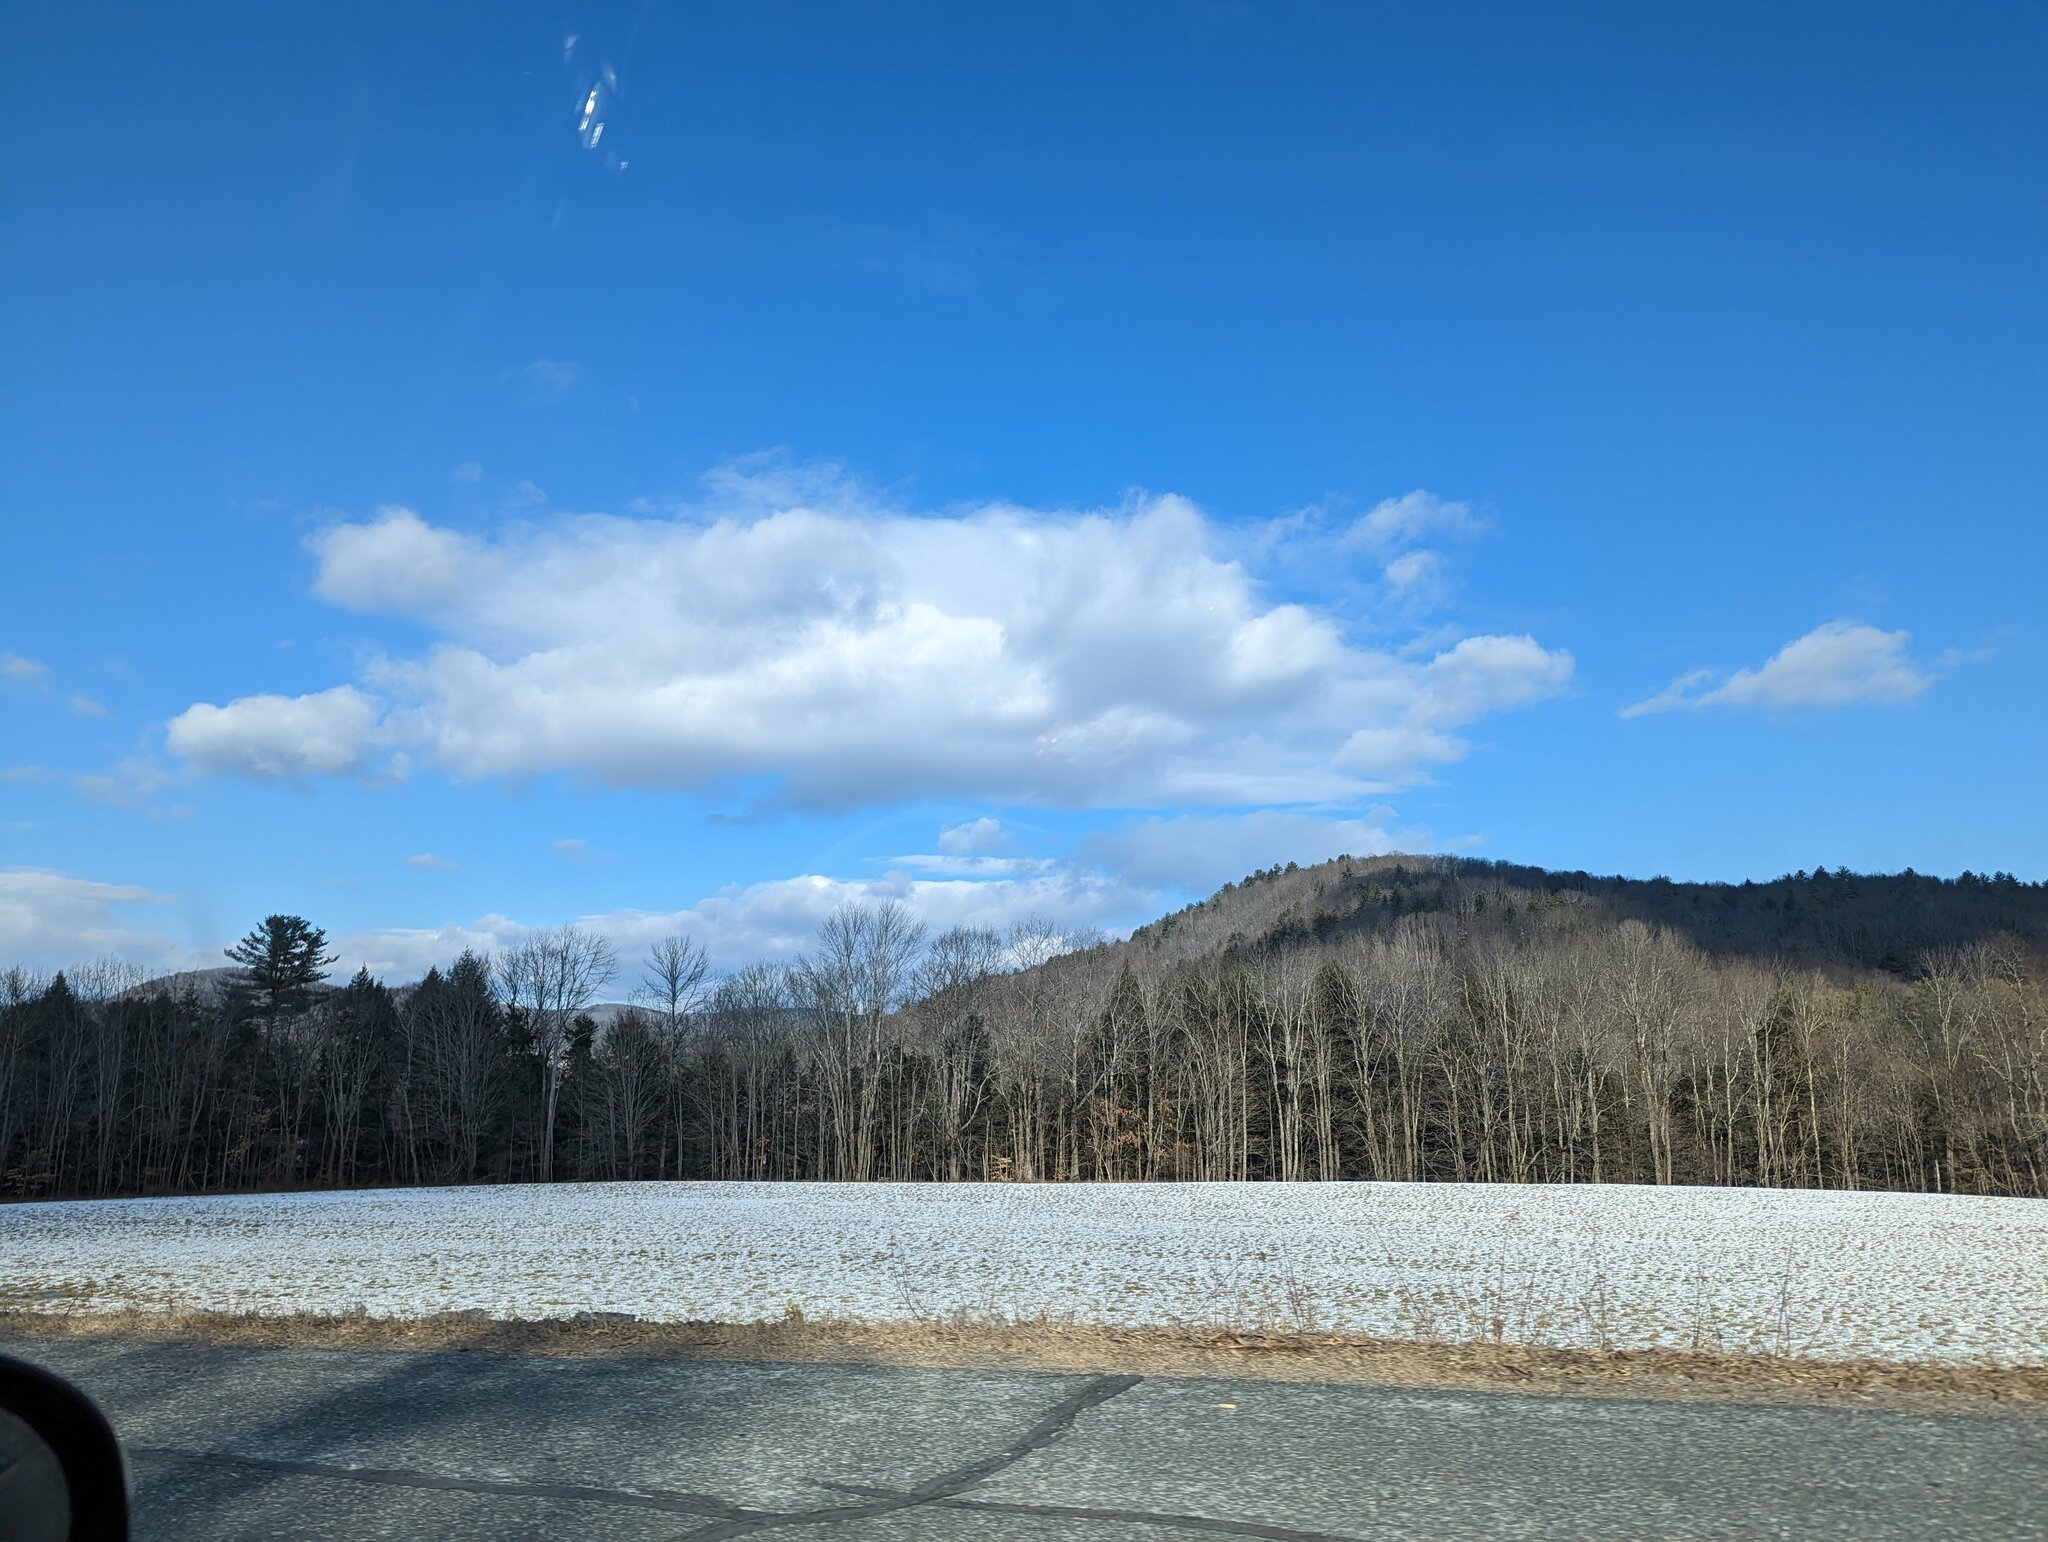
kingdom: Plantae
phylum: Tracheophyta
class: Pinopsida
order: Pinales
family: Pinaceae
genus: Pinus
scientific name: Pinus strobus
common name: Weymouth pine
